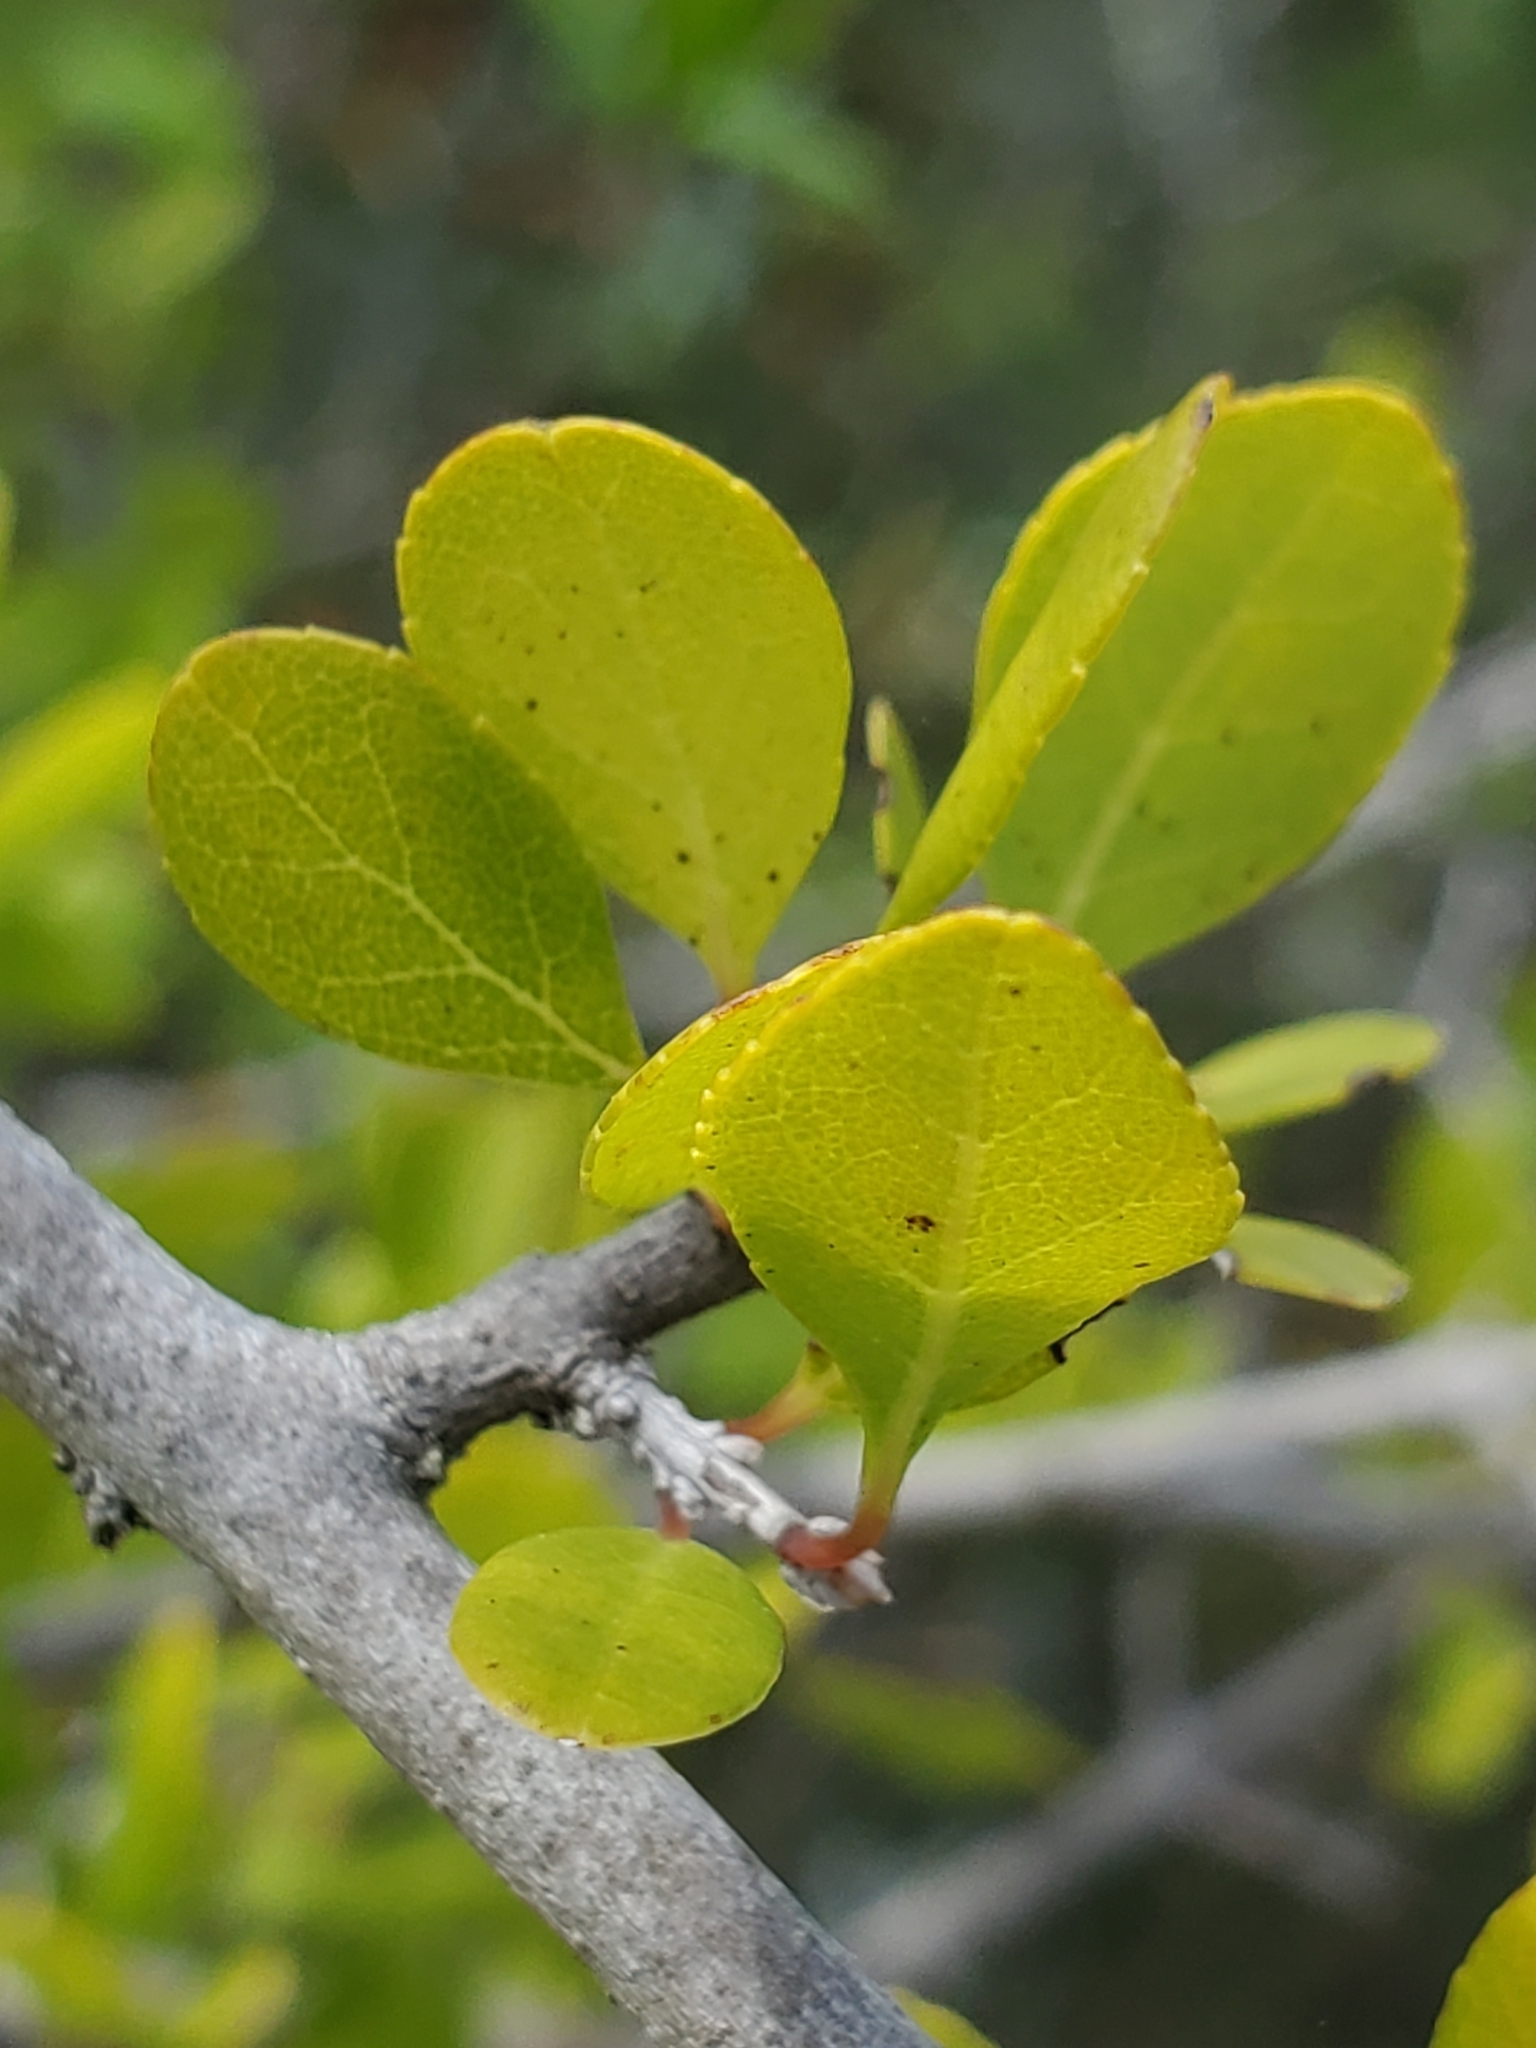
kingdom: Plantae
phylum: Tracheophyta
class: Magnoliopsida
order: Lamiales
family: Oleaceae
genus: Forestiera
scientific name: Forestiera pubescens
